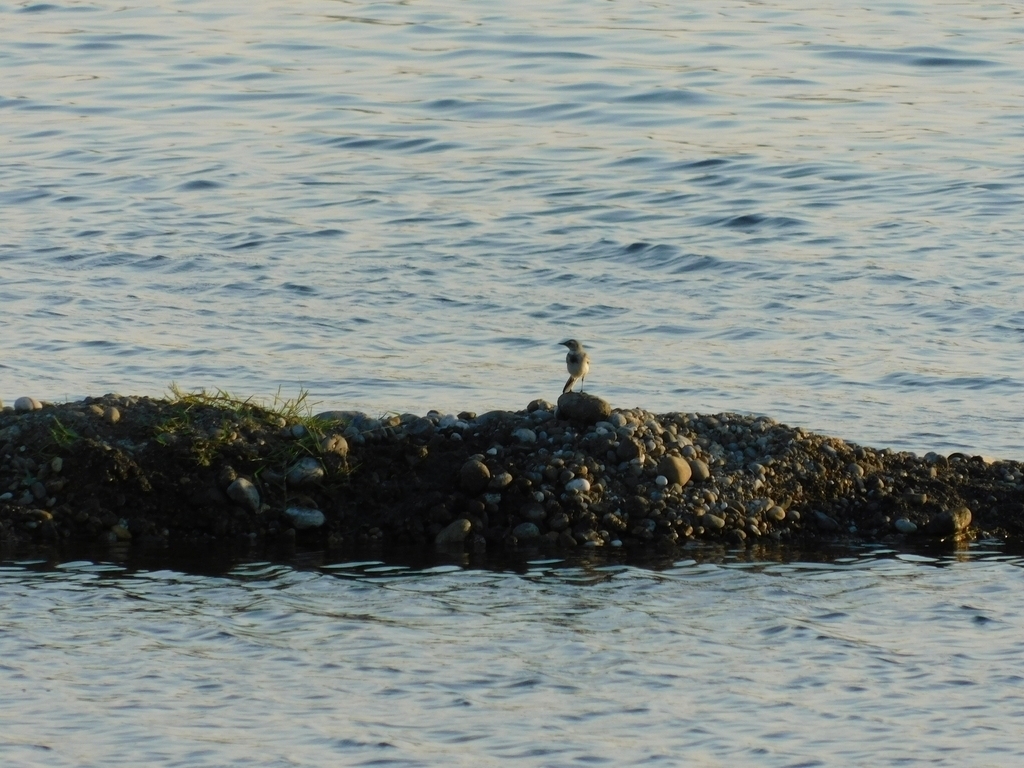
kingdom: Animalia
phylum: Chordata
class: Aves
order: Passeriformes
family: Motacillidae
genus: Motacilla
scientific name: Motacilla alba
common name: White wagtail
